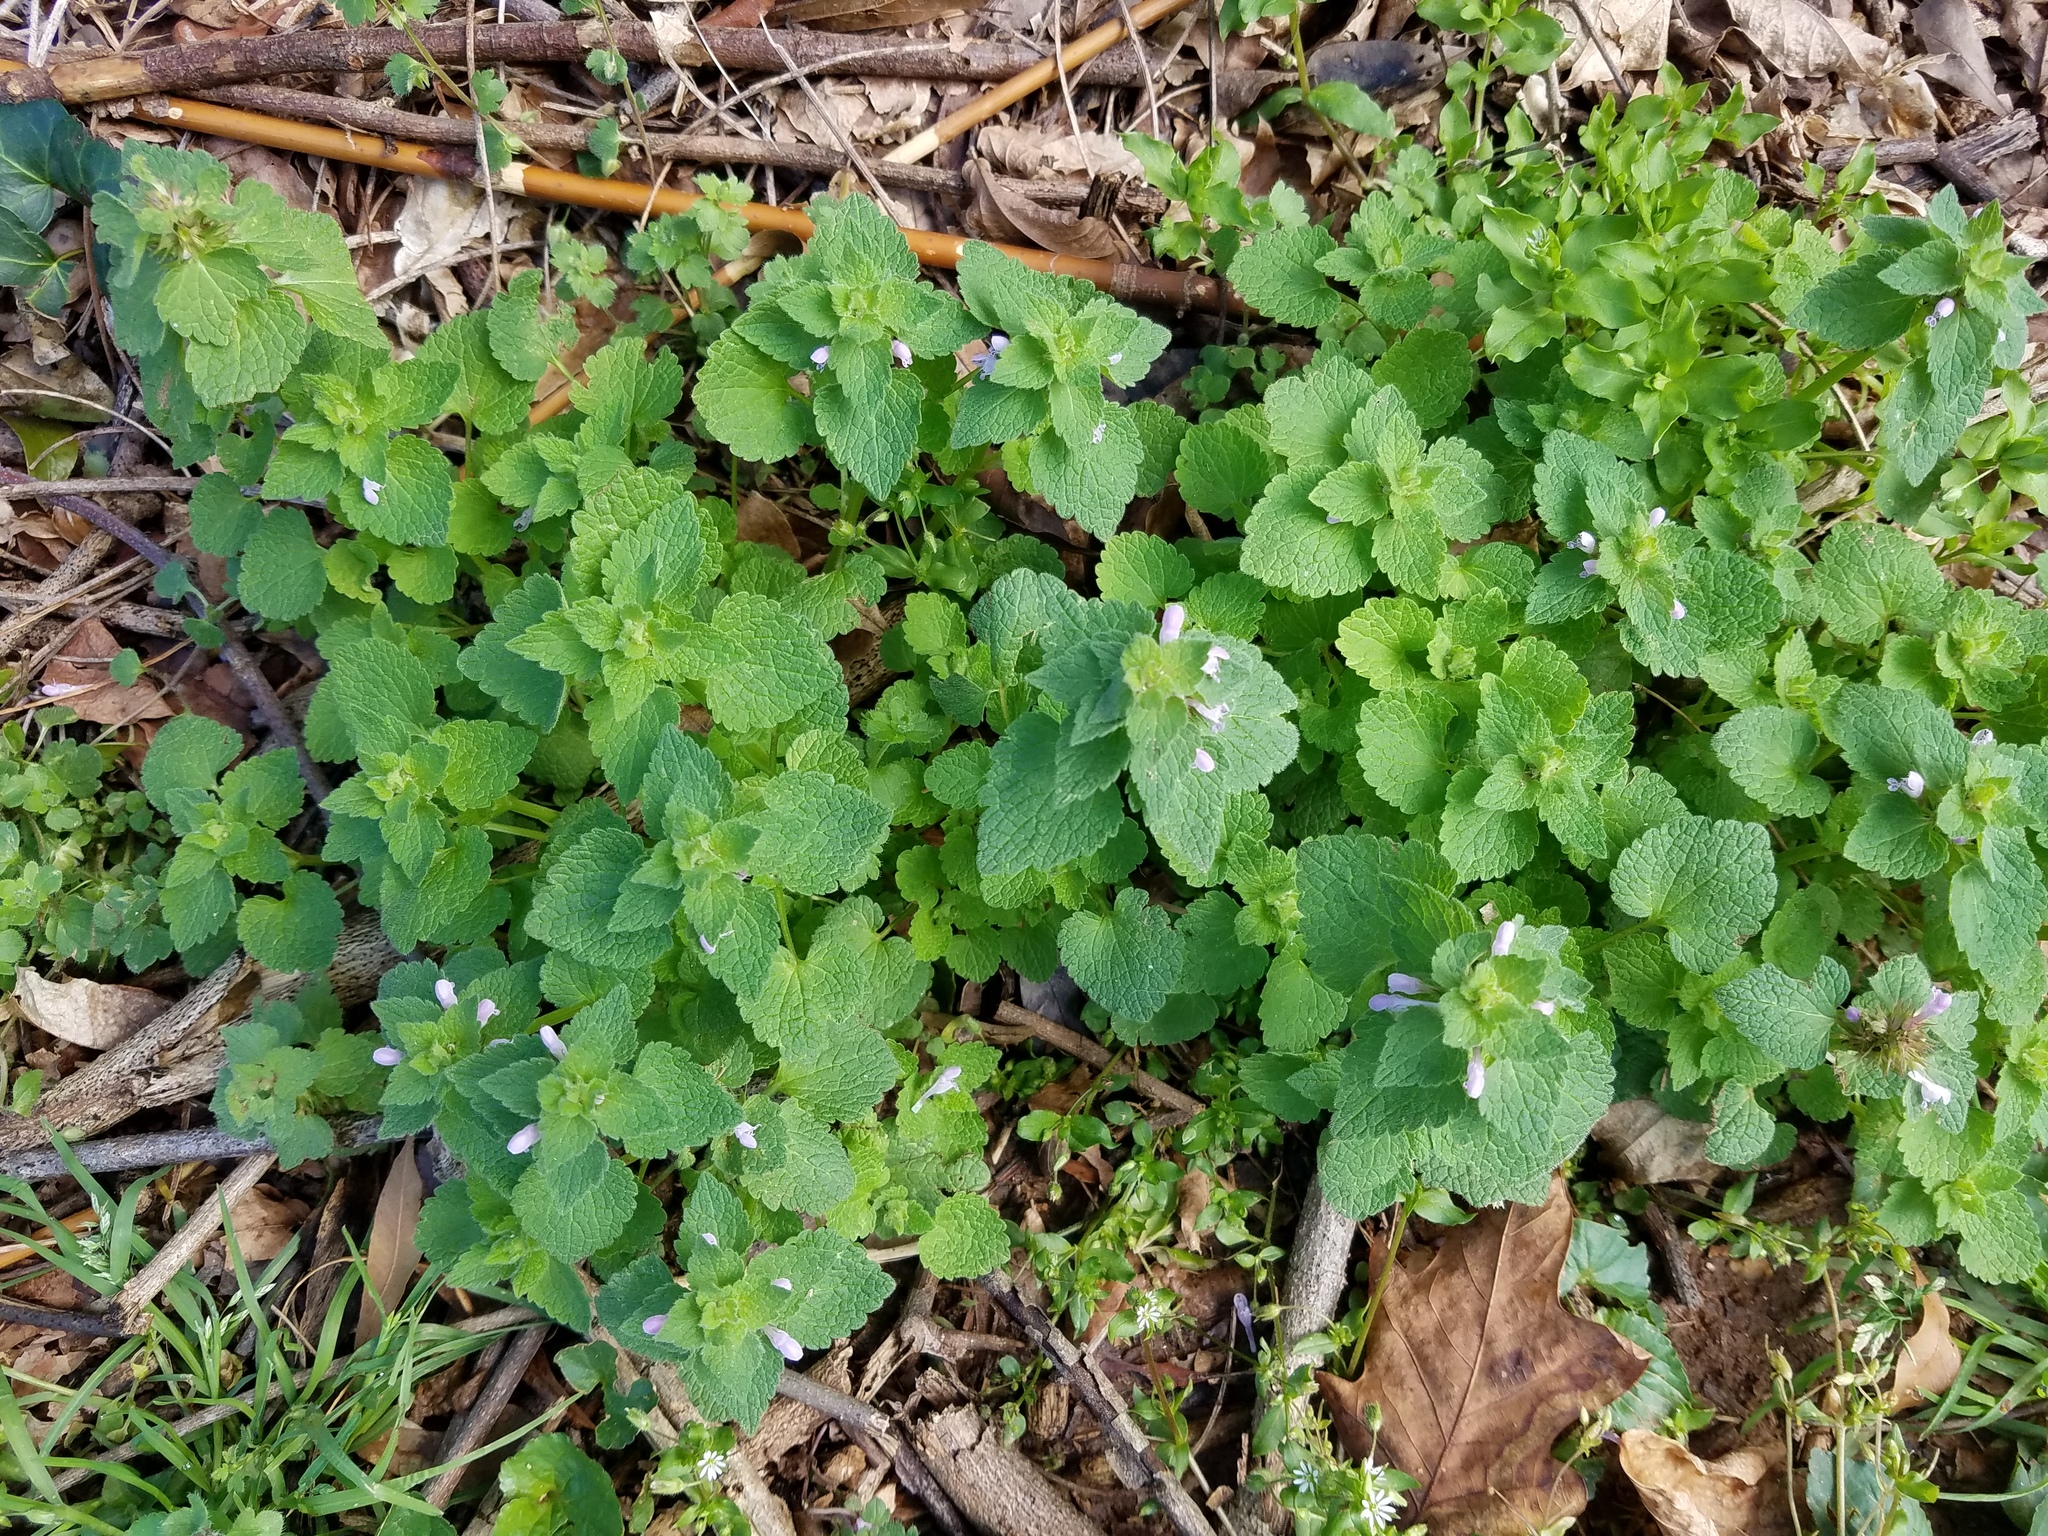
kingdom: Plantae
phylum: Tracheophyta
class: Magnoliopsida
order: Lamiales
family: Lamiaceae
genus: Lamium
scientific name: Lamium purpureum
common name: Red dead-nettle
